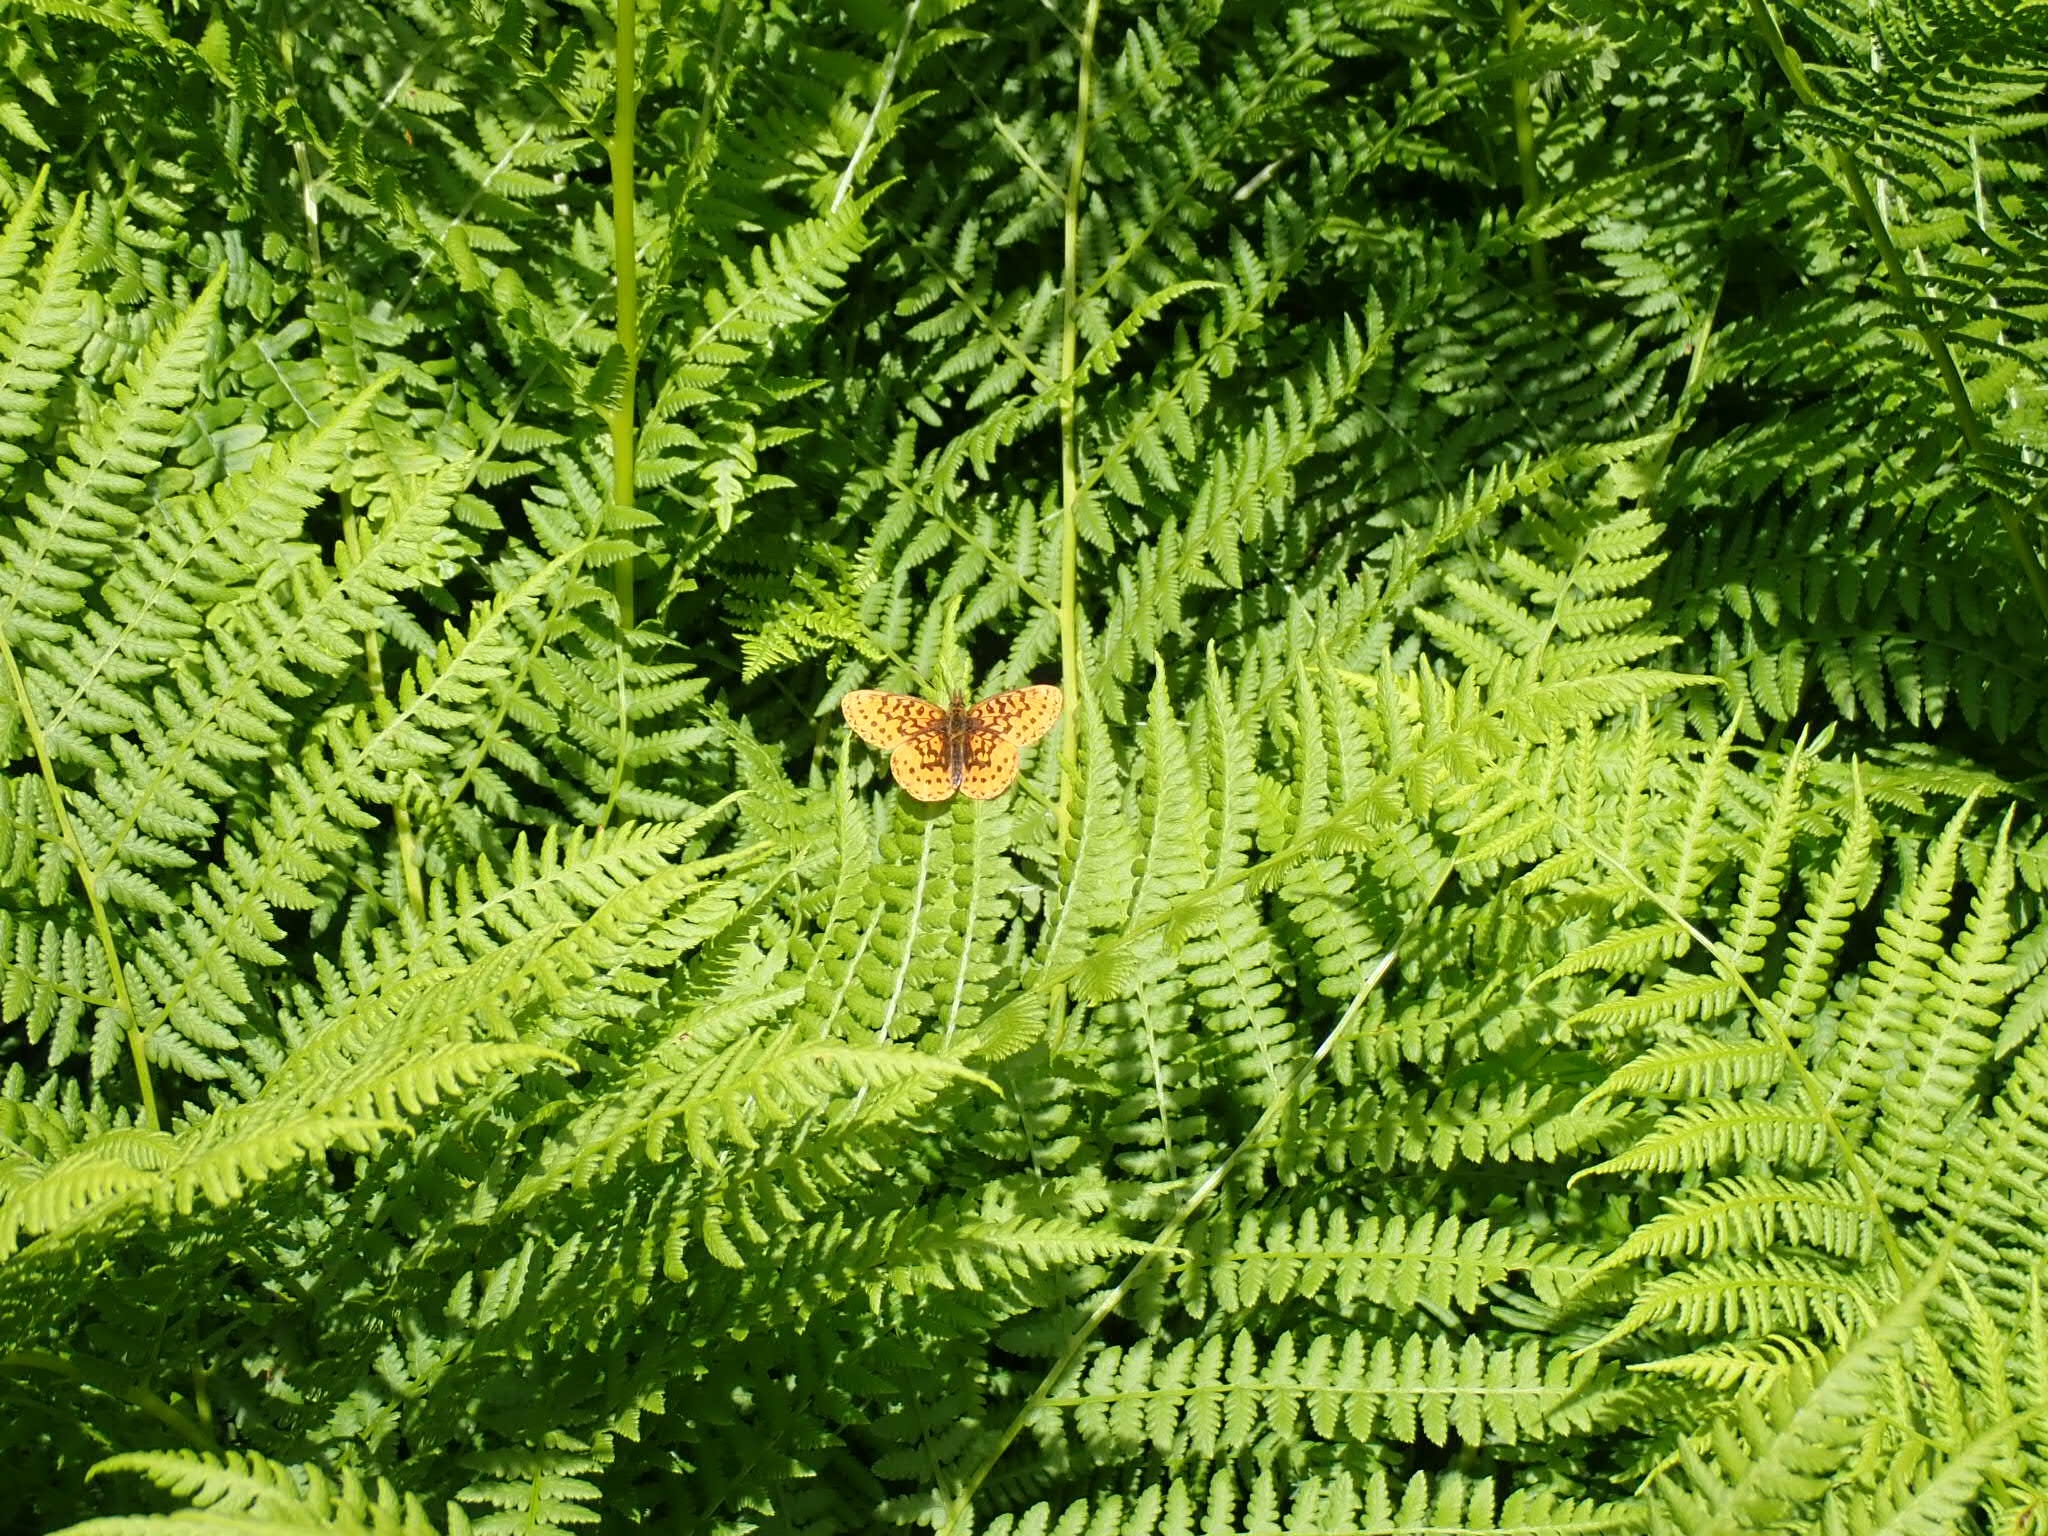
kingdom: Animalia
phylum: Arthropoda
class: Insecta
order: Lepidoptera
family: Nymphalidae
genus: Boloria
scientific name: Boloria epithore
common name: Pacific fritillary
